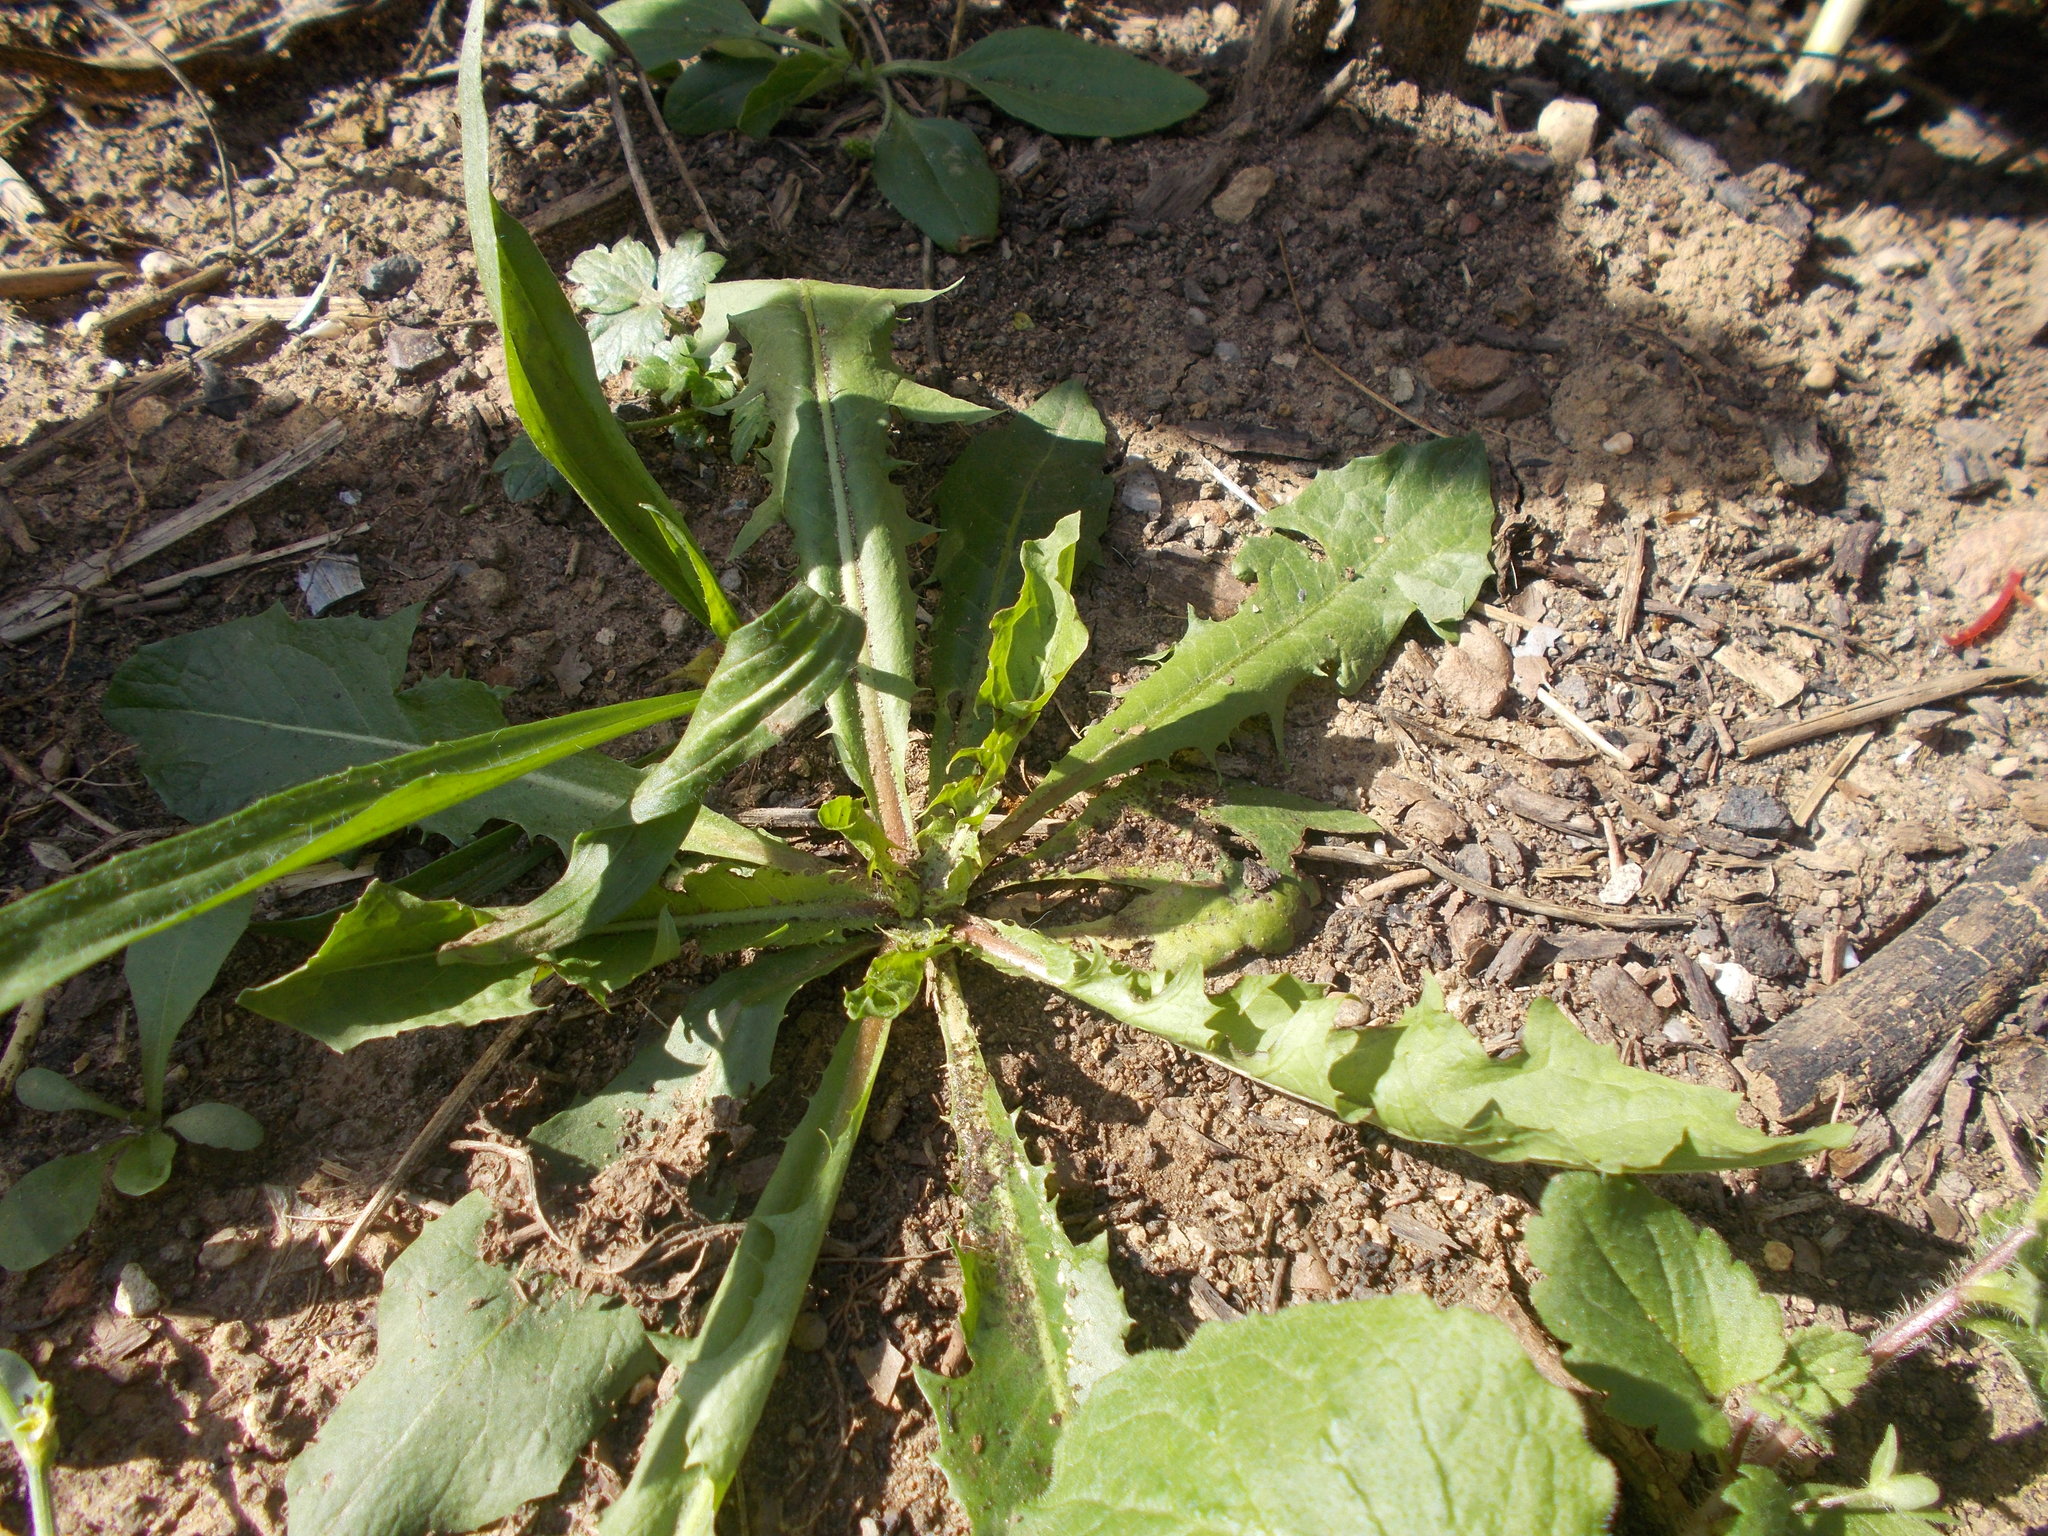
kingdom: Plantae
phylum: Tracheophyta
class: Magnoliopsida
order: Asterales
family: Asteraceae
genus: Taraxacum
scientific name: Taraxacum officinale
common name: Common dandelion
